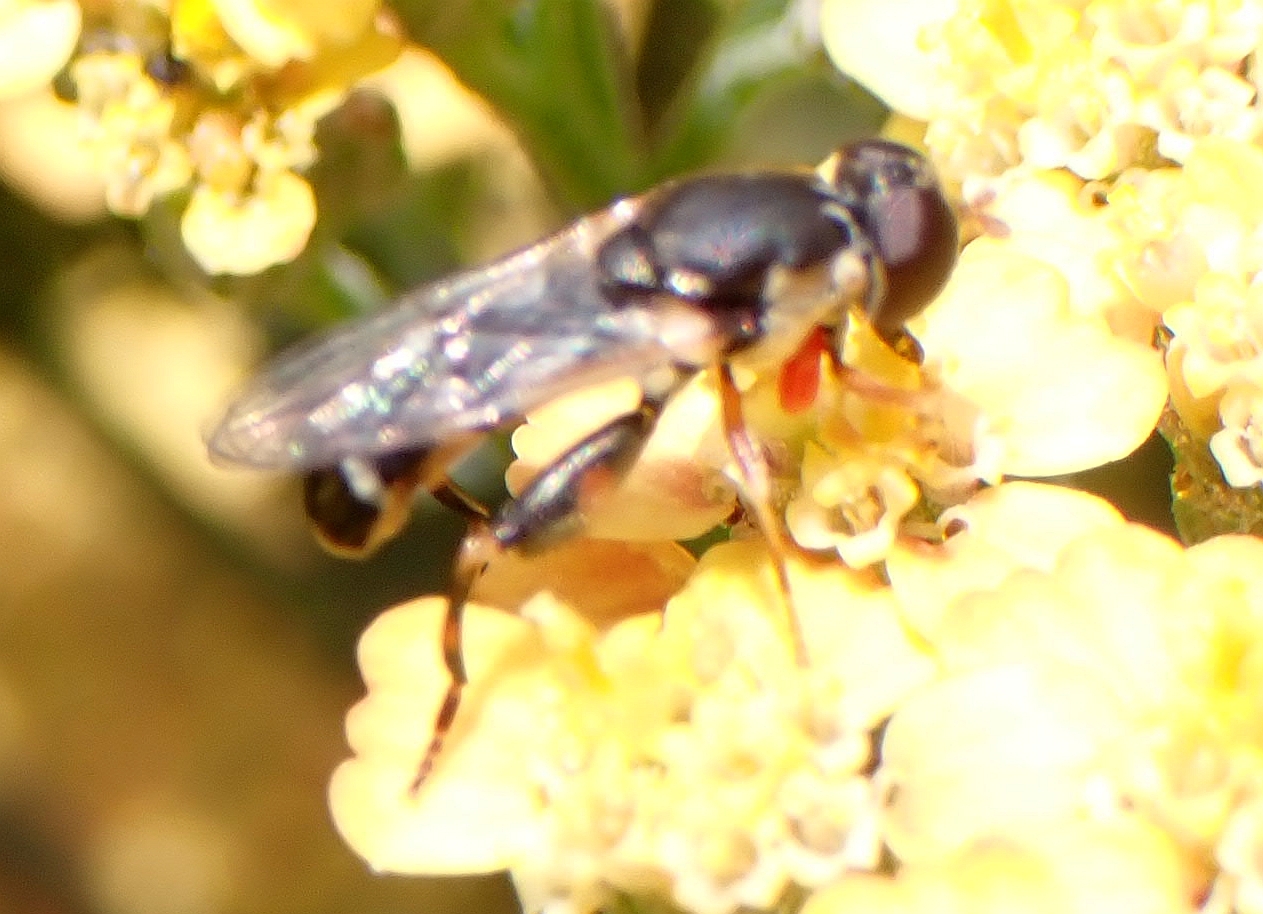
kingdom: Animalia
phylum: Arthropoda
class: Insecta
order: Diptera
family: Syrphidae
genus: Syritta
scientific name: Syritta pipiens
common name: Hover fly
